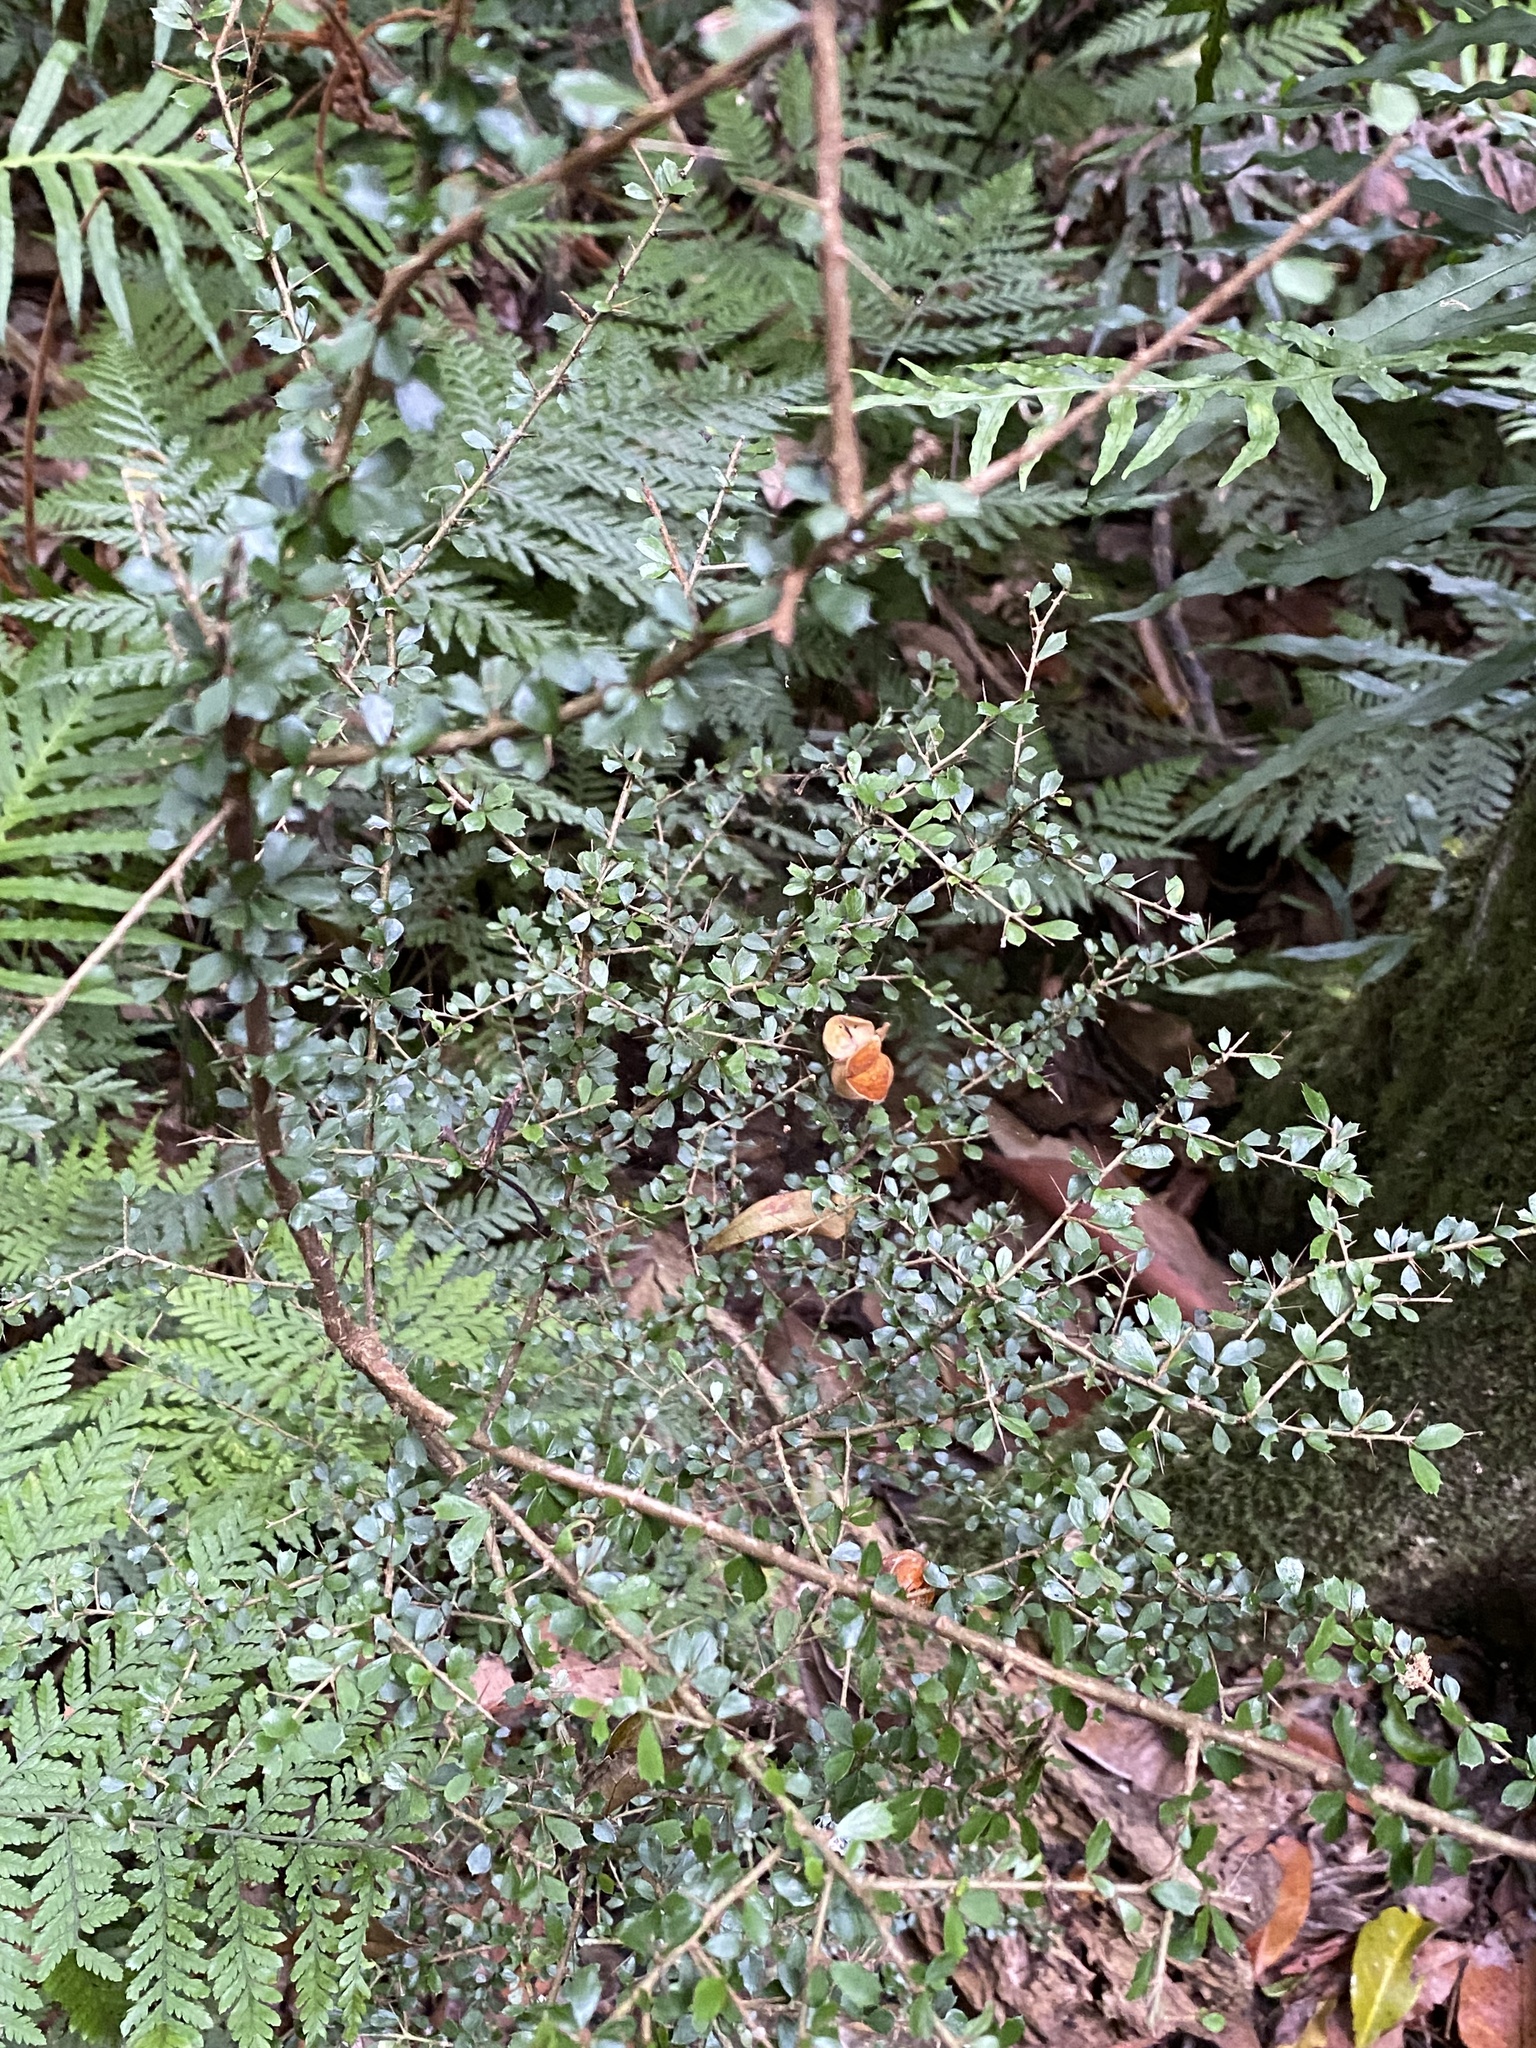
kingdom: Plantae
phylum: Tracheophyta
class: Magnoliopsida
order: Apiales
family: Pittosporaceae
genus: Pittosporum
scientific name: Pittosporum multiflorum
